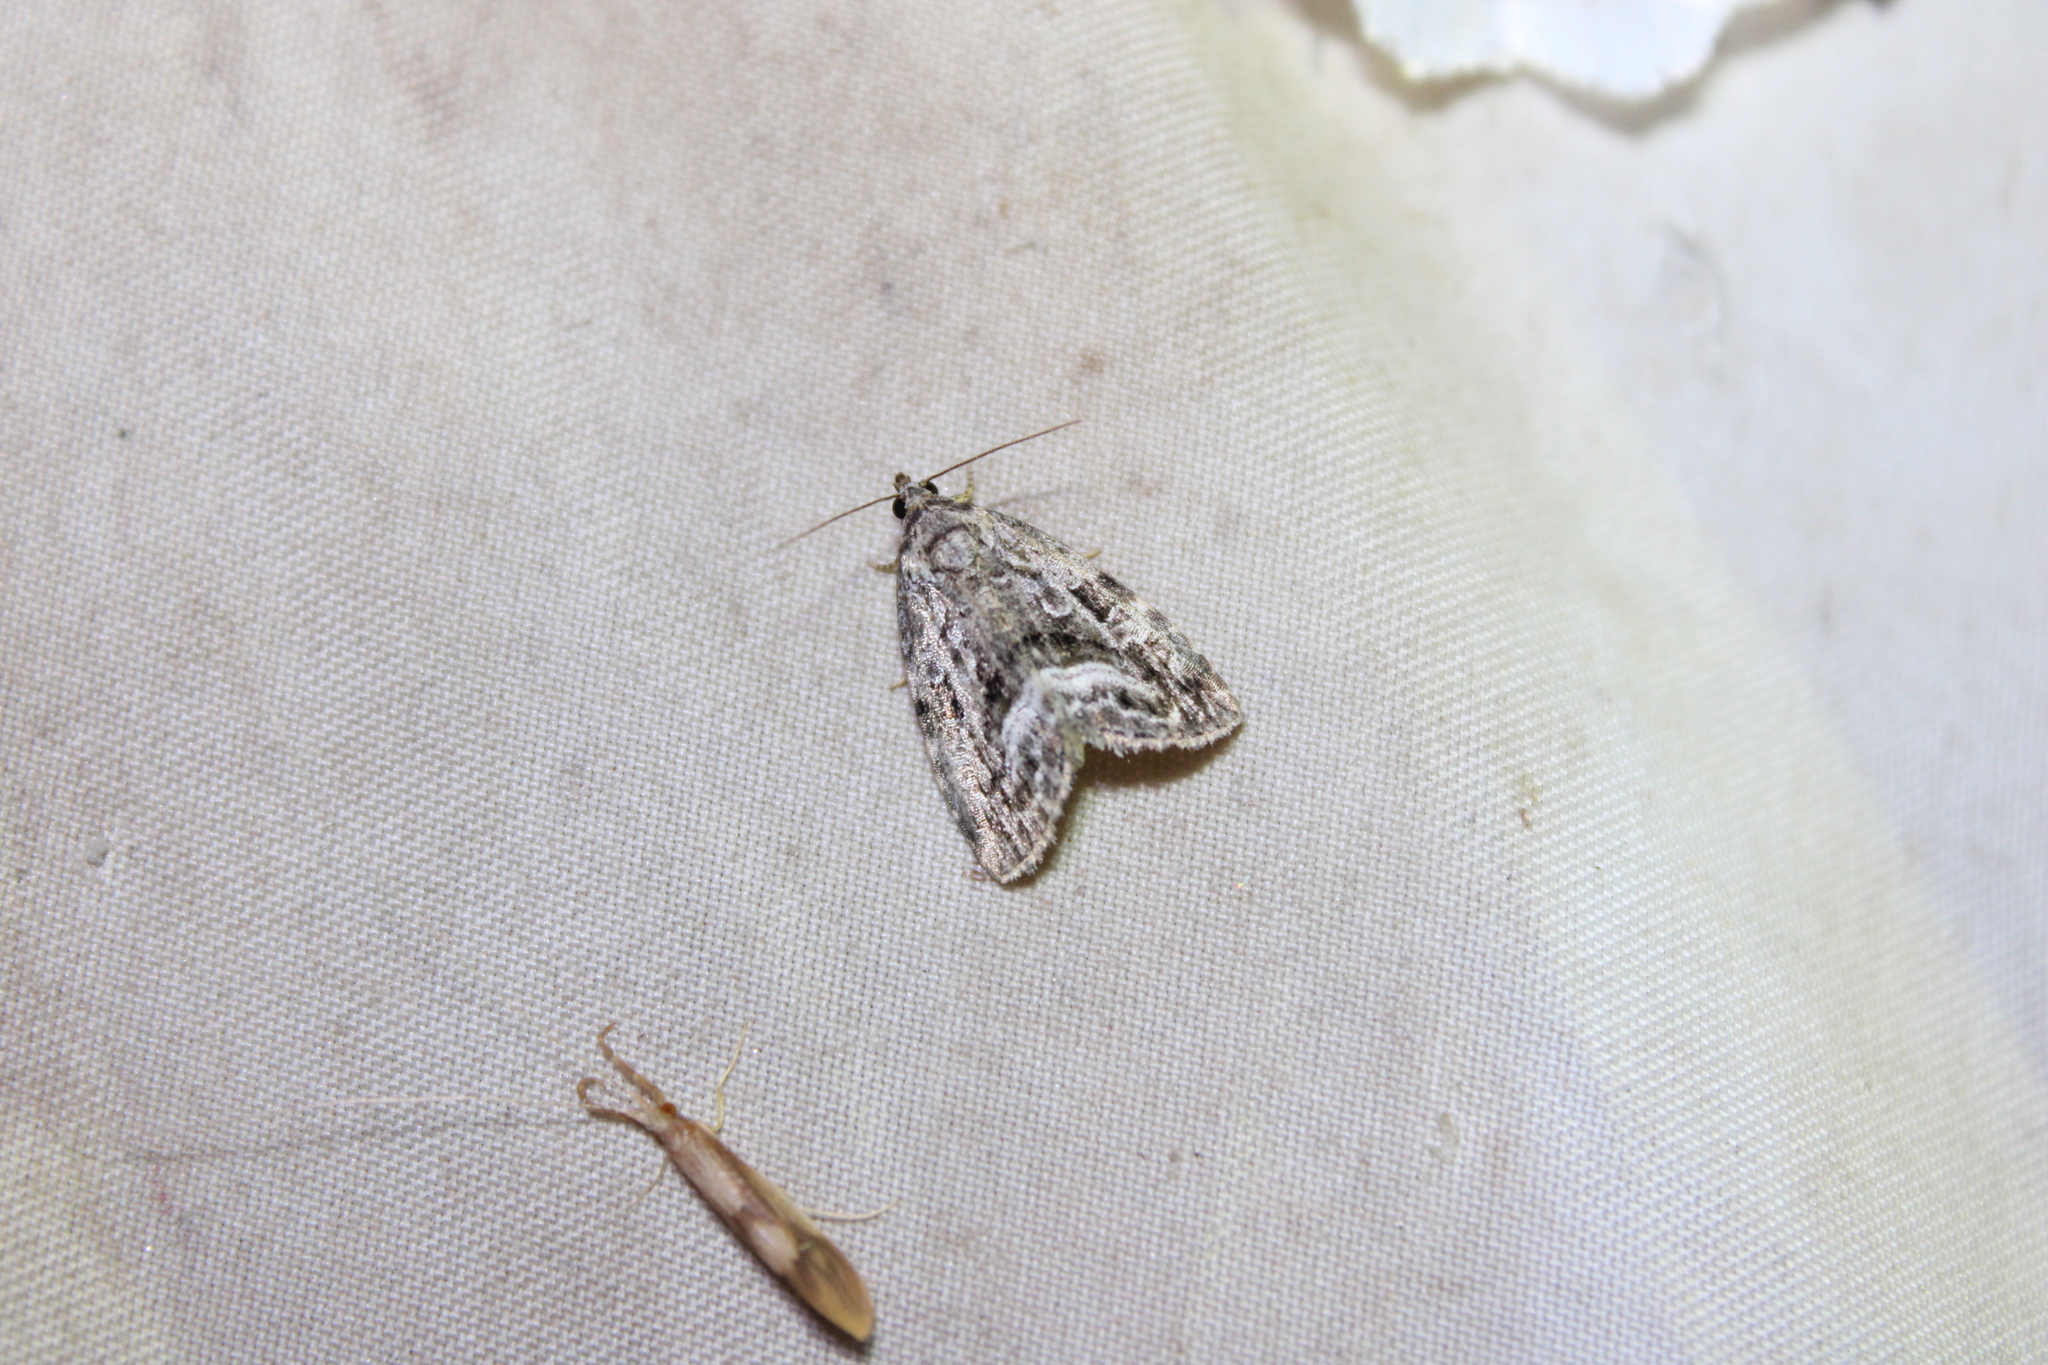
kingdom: Animalia
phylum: Arthropoda
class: Insecta
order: Lepidoptera
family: Noctuidae
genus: Protodeltote
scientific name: Protodeltote muscosula
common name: Large mossy glyph
